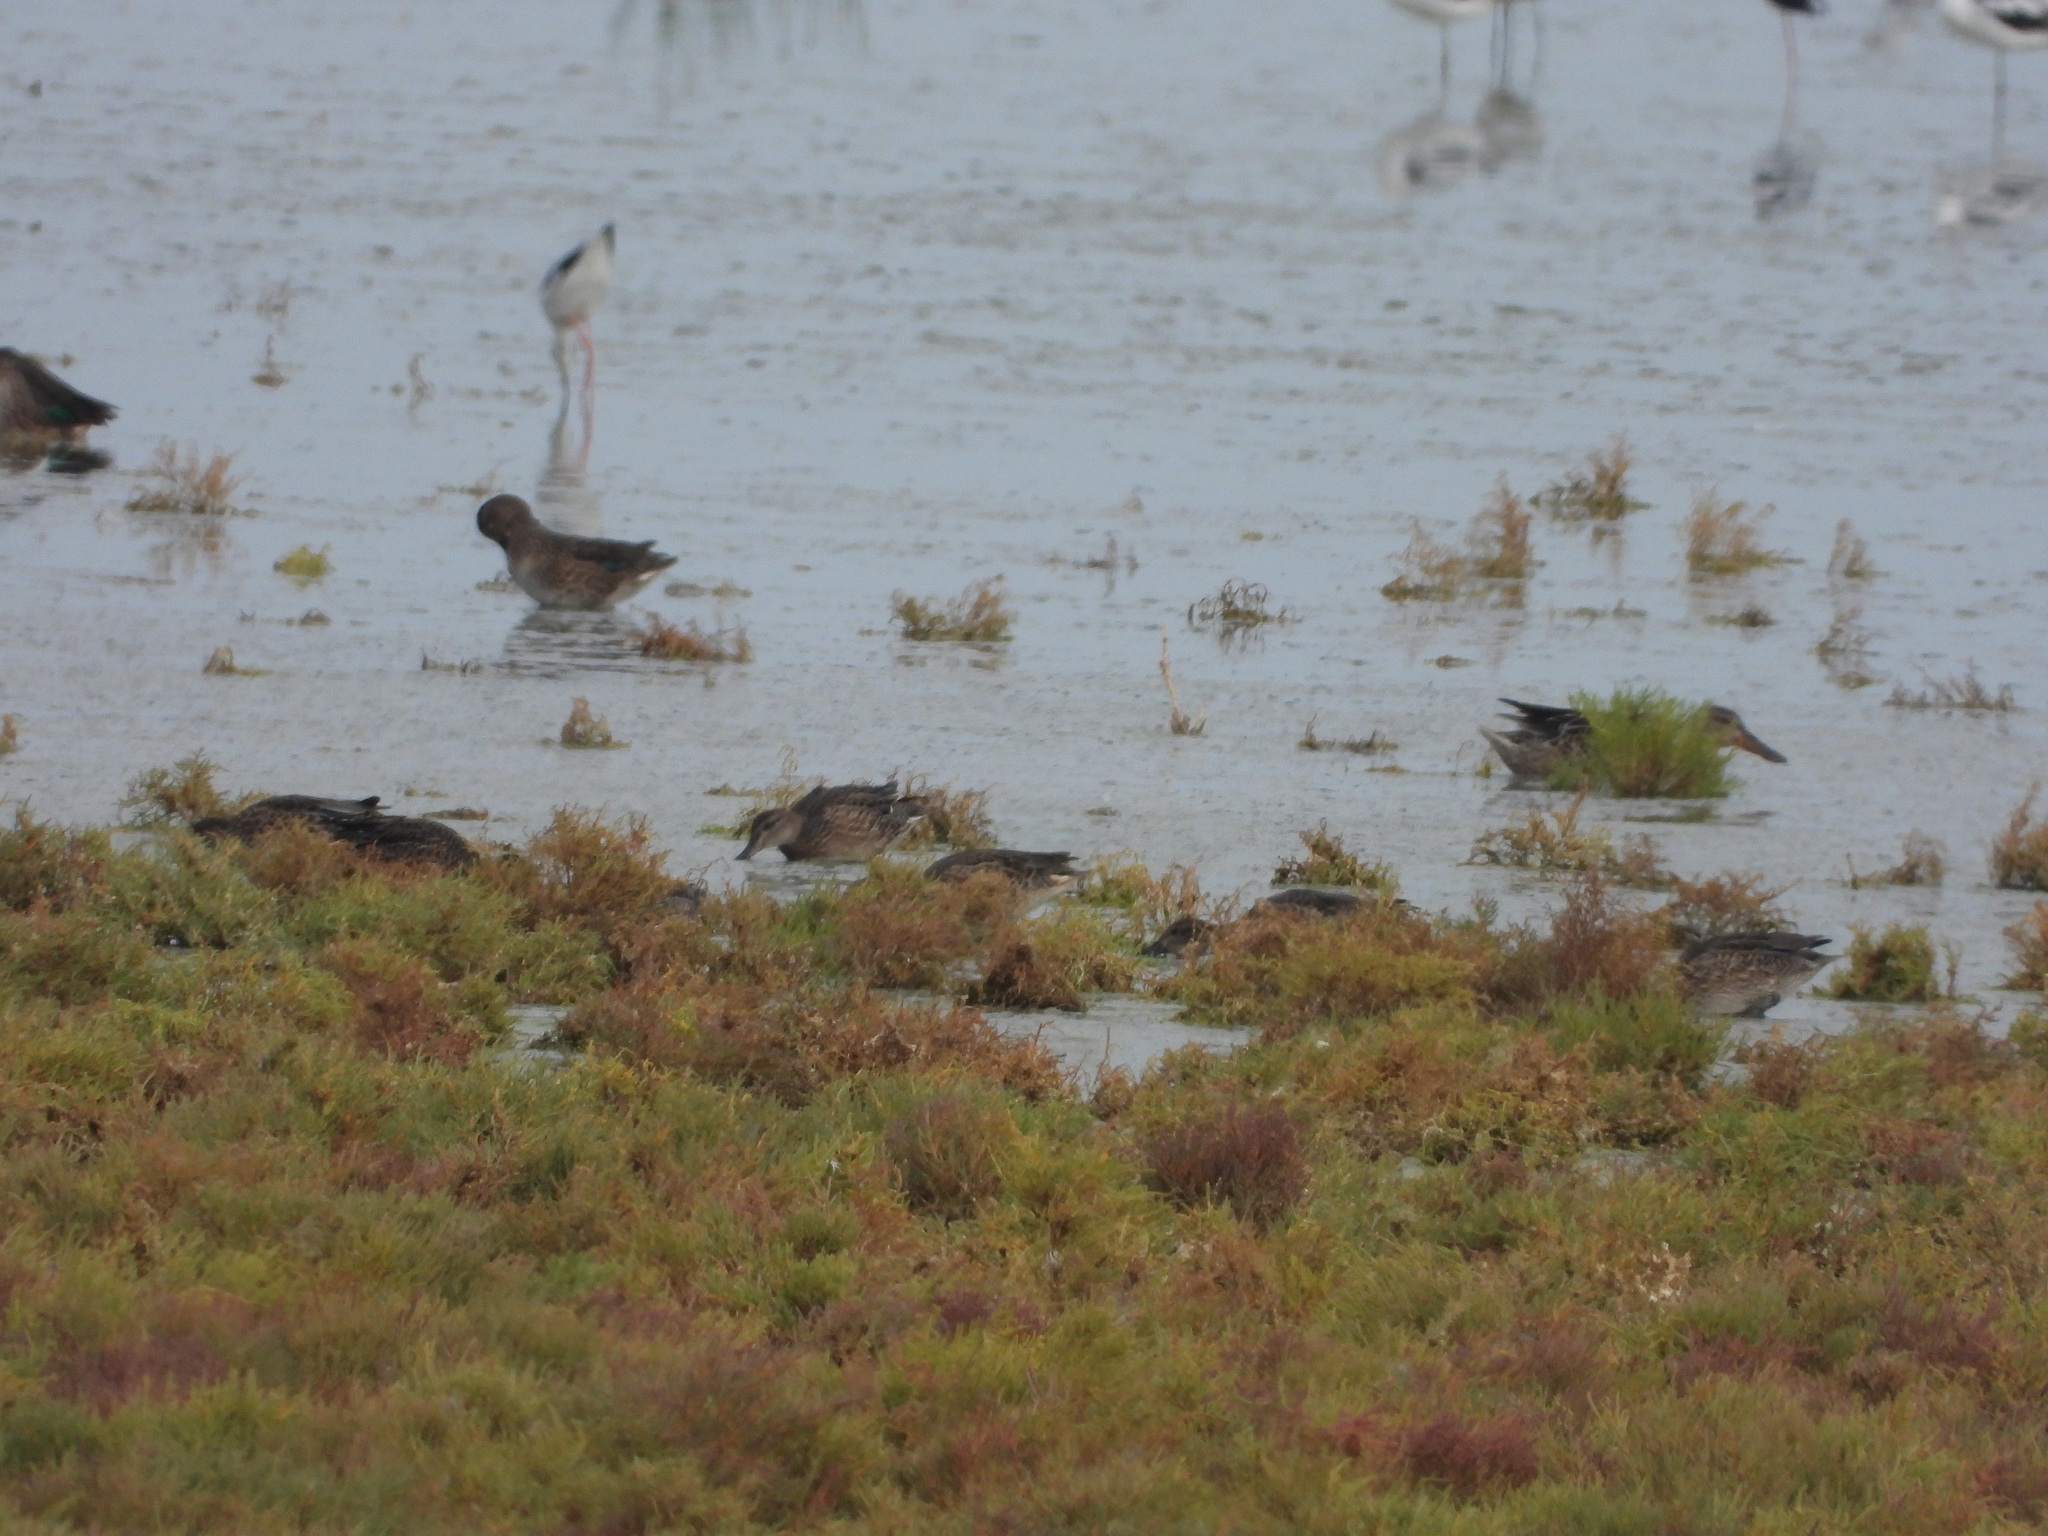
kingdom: Animalia
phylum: Chordata
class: Aves
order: Anseriformes
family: Anatidae
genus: Anas
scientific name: Anas crecca
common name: Eurasian teal
